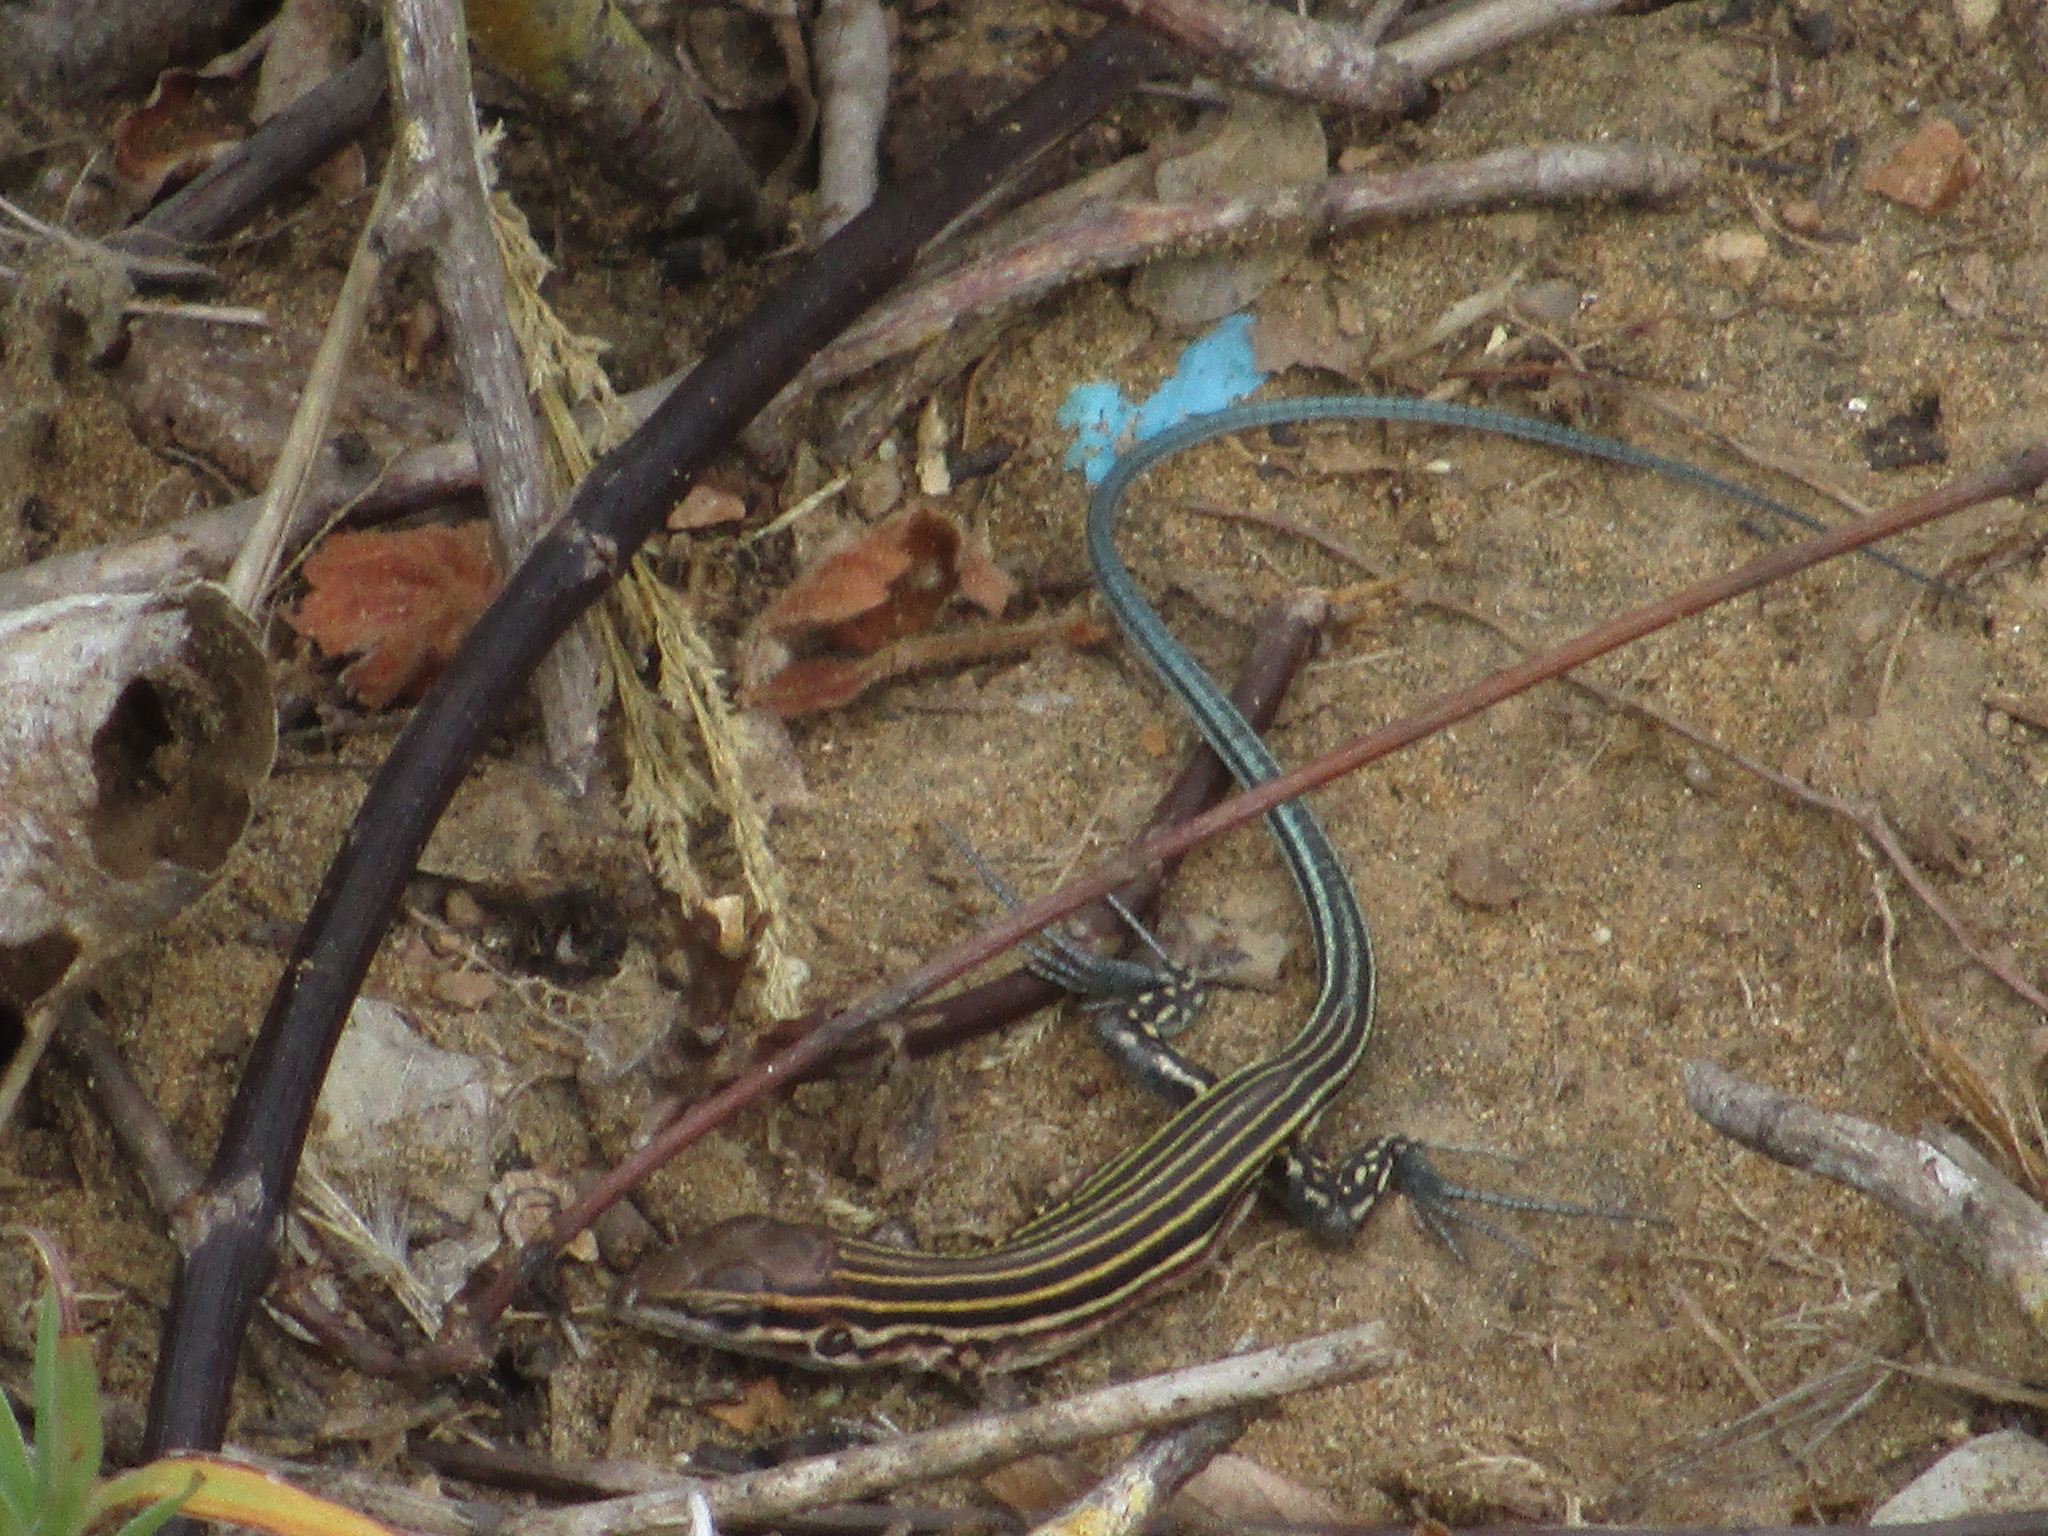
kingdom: Animalia
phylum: Chordata
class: Squamata
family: Teiidae
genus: Aspidoscelis
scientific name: Aspidoscelis lineattissimus
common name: Many-lined whiptail
